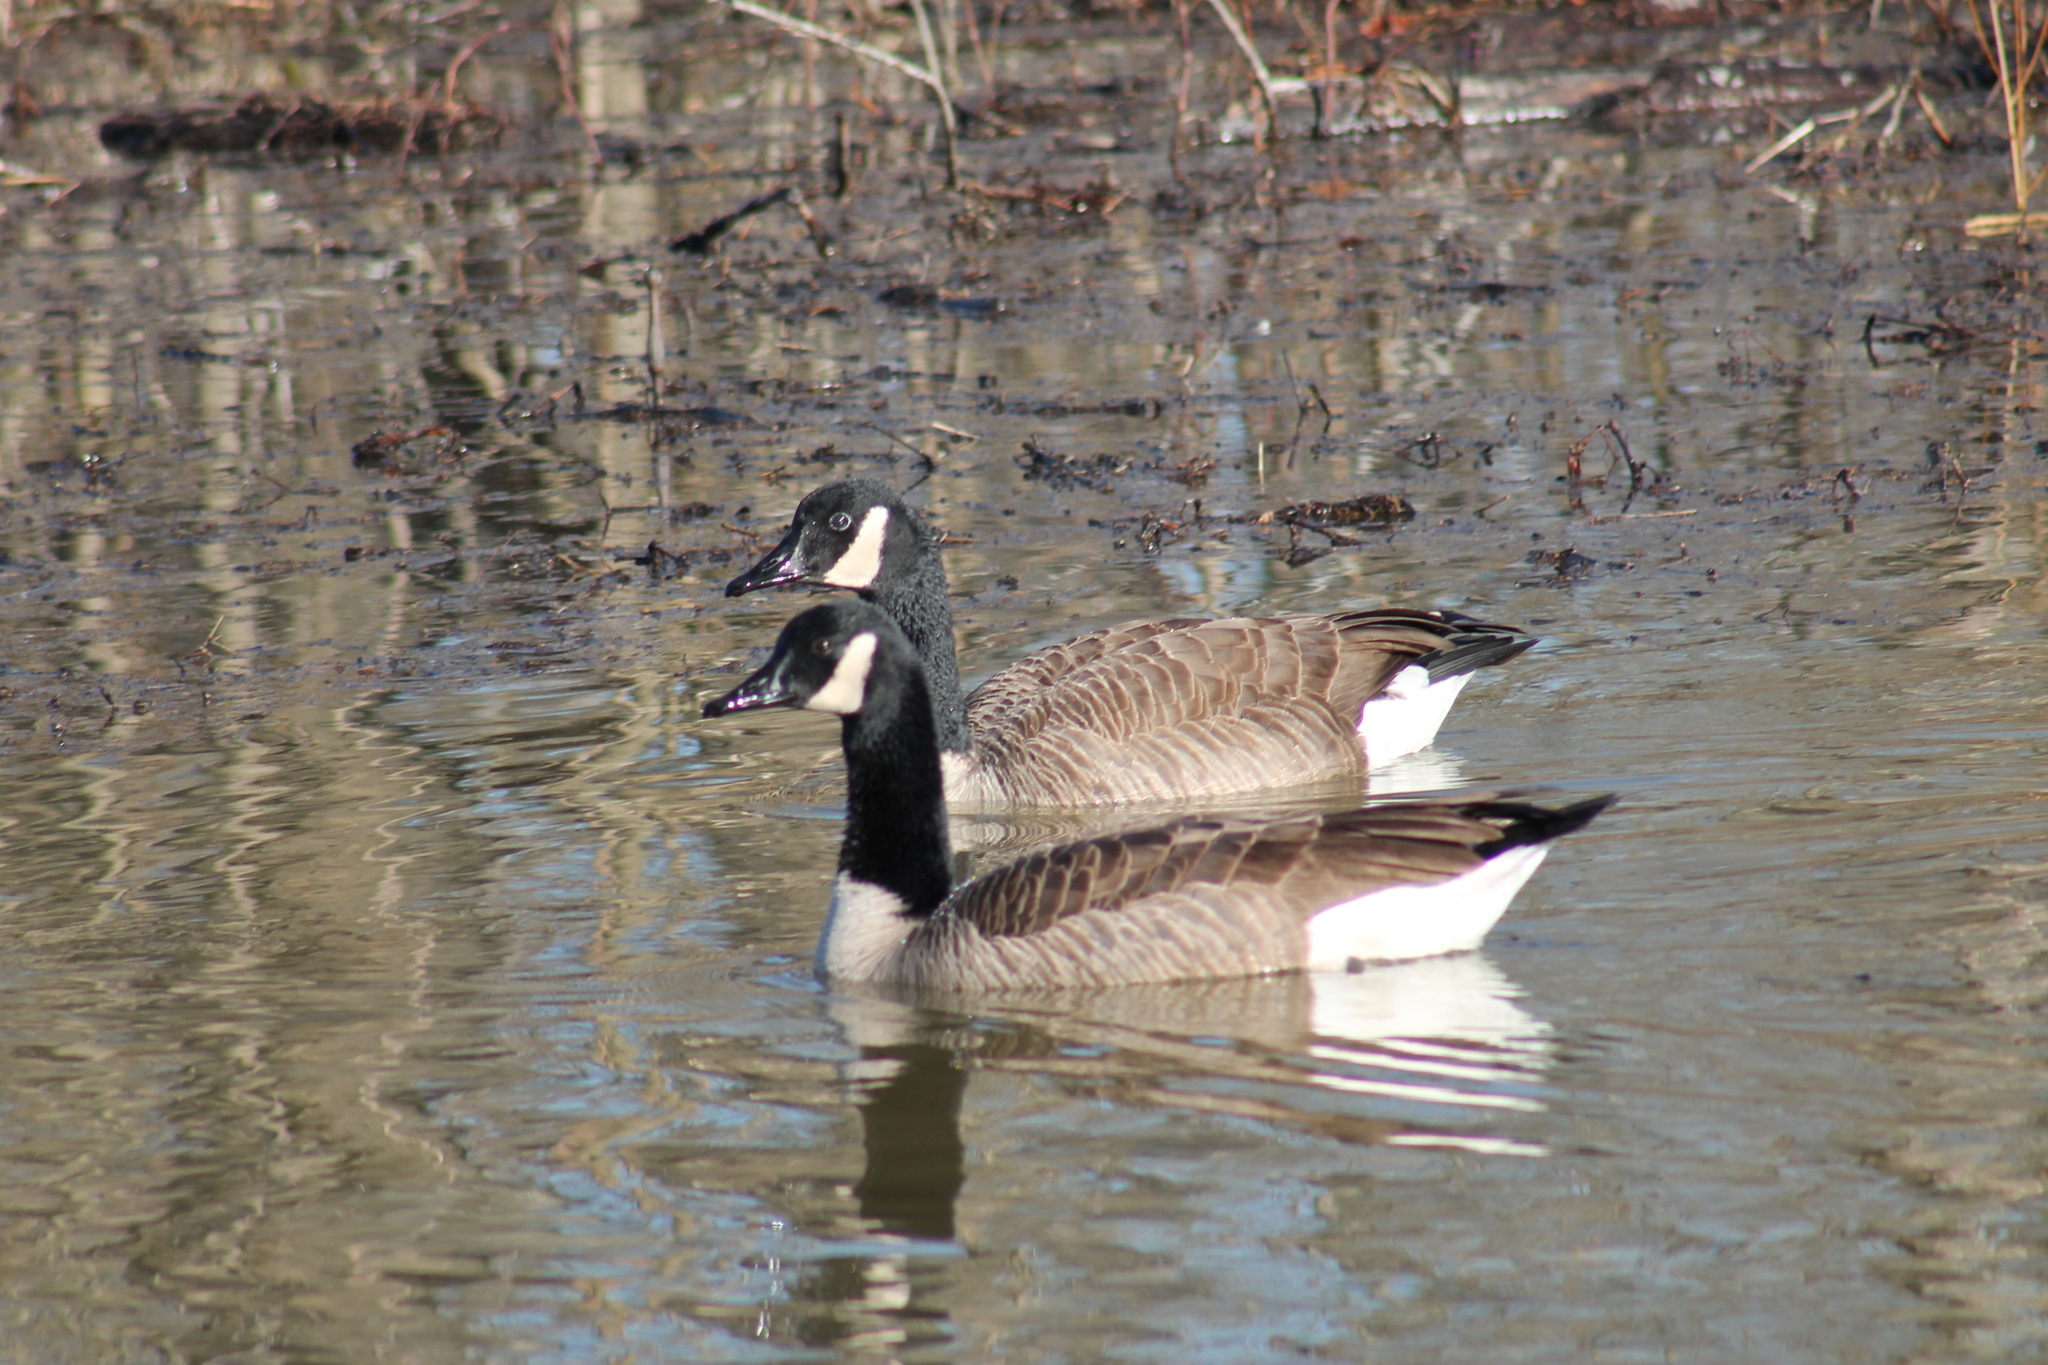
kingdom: Animalia
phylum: Chordata
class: Aves
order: Anseriformes
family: Anatidae
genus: Branta
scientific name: Branta canadensis
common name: Canada goose
